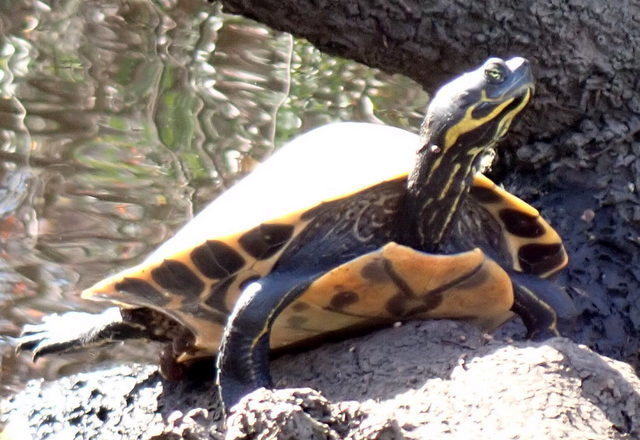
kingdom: Animalia
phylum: Chordata
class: Testudines
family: Emydidae
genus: Pseudemys
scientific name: Pseudemys concinna
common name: Eastern river cooter
